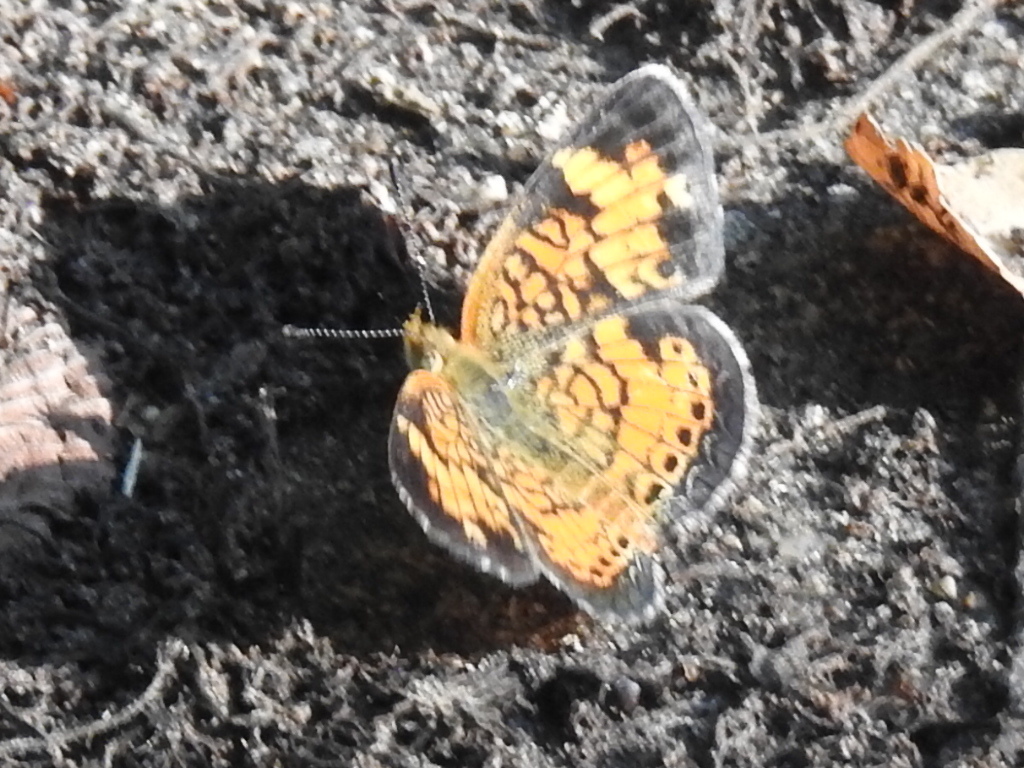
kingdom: Animalia
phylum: Arthropoda
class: Insecta
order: Lepidoptera
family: Nymphalidae
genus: Phyciodes
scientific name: Phyciodes tharos
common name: Pearl crescent
